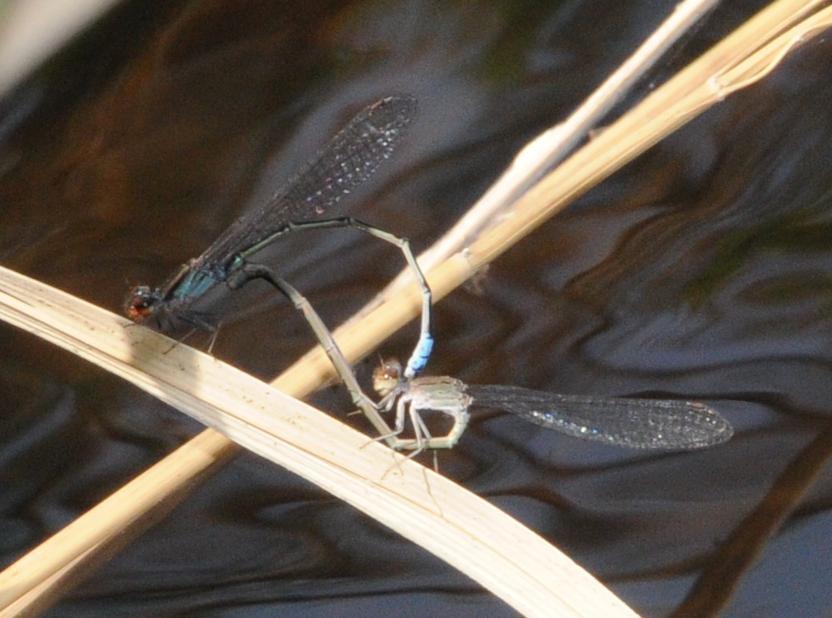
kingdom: Animalia
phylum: Arthropoda
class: Insecta
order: Odonata
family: Coenagrionidae
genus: Pseudagrion
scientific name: Pseudagrion hamoni
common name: Swarthy sprite
